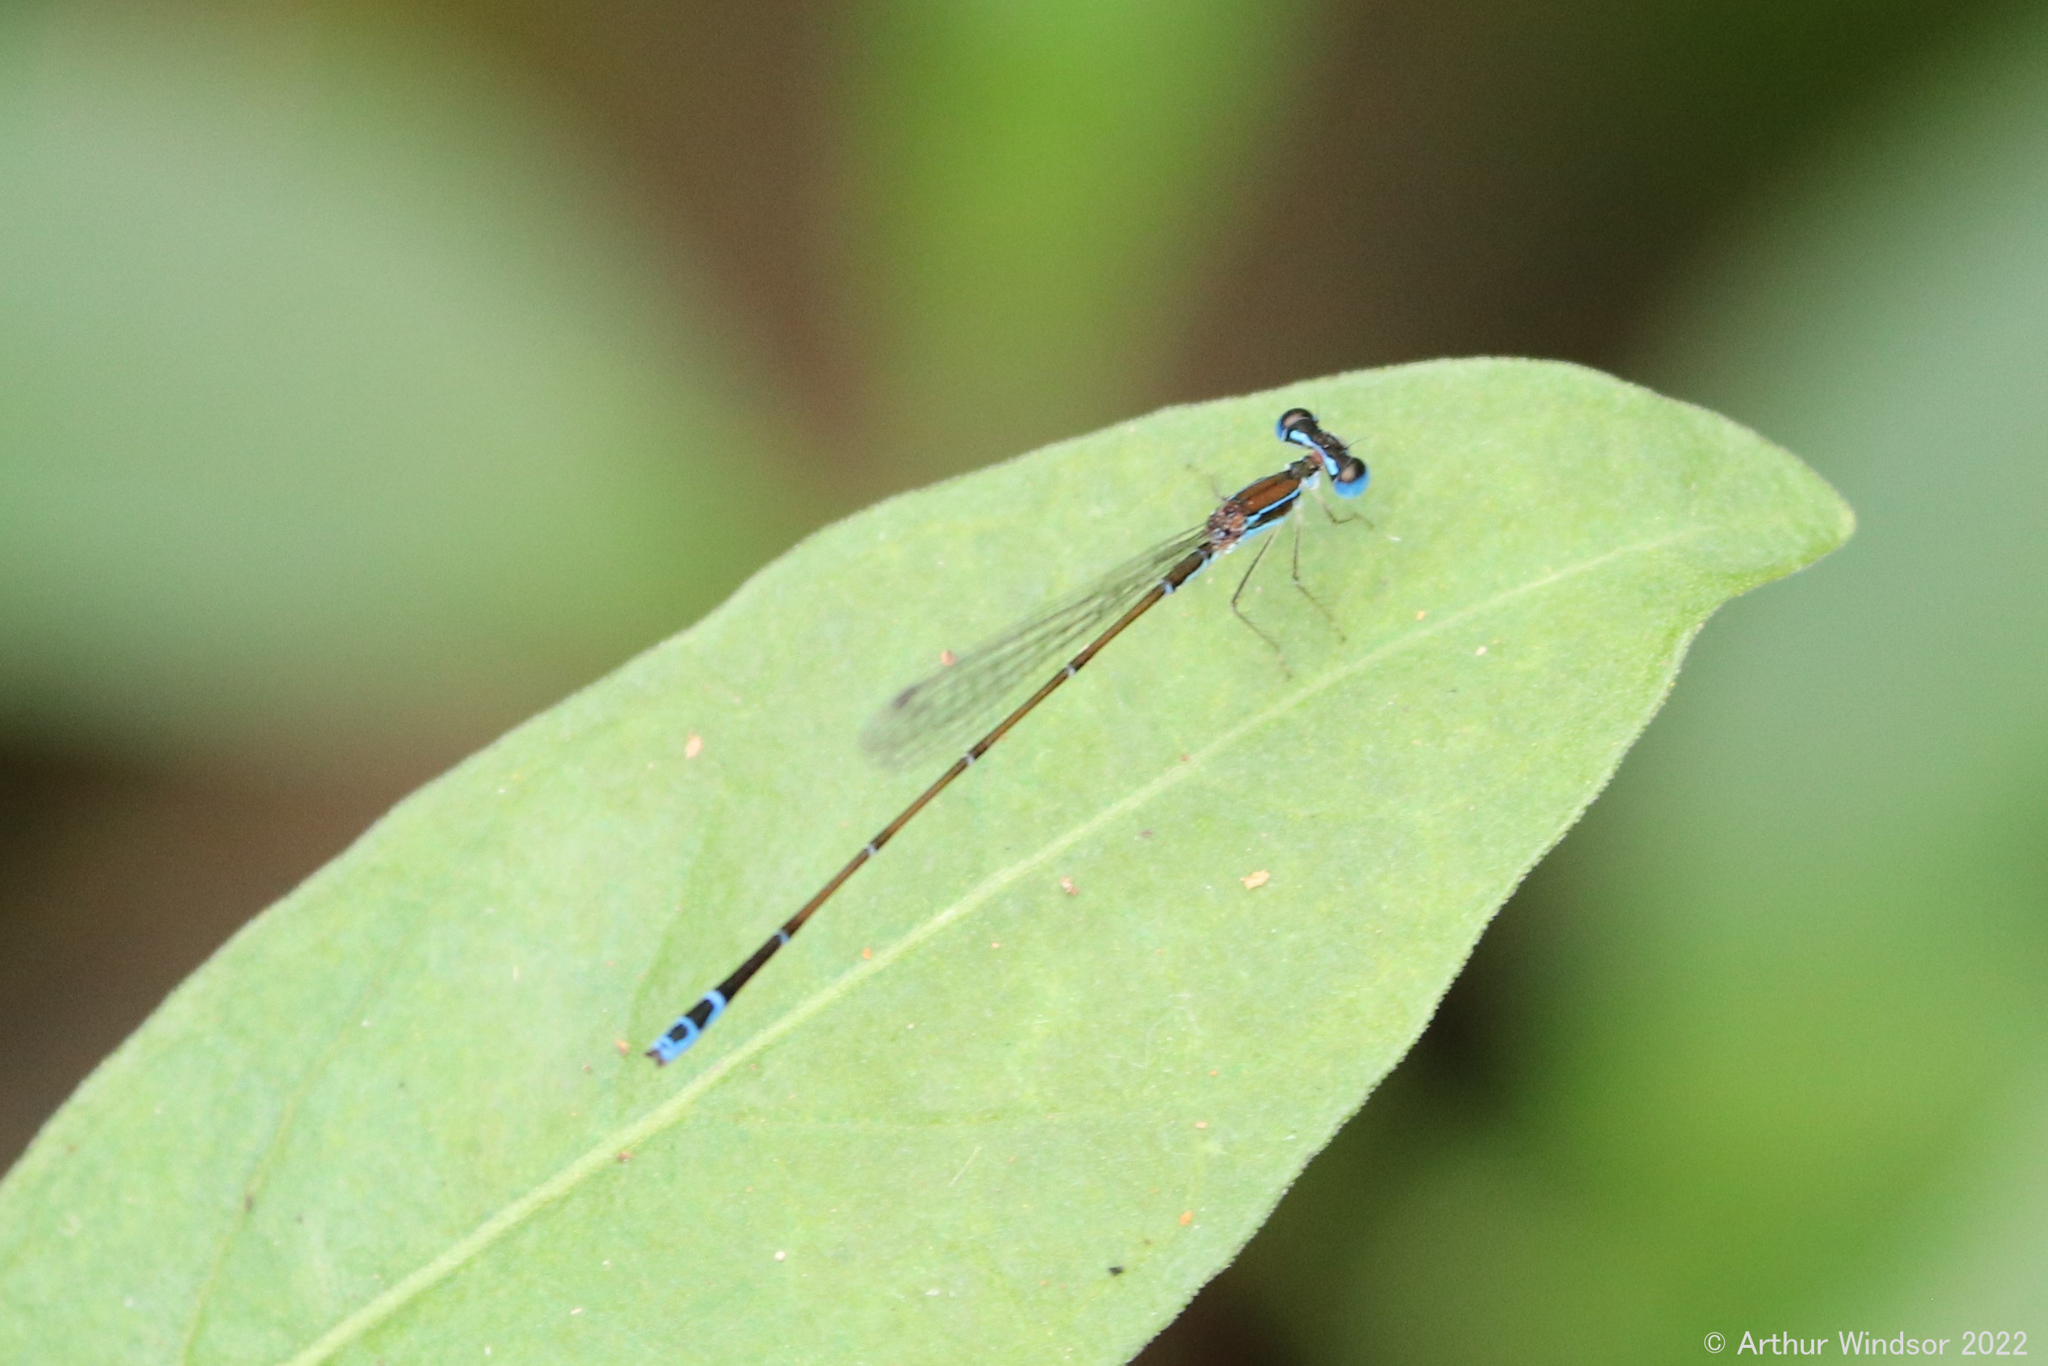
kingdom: Animalia
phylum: Arthropoda
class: Insecta
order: Odonata
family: Coenagrionidae
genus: Nehalennia
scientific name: Nehalennia pallidula
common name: Everglades sprite
